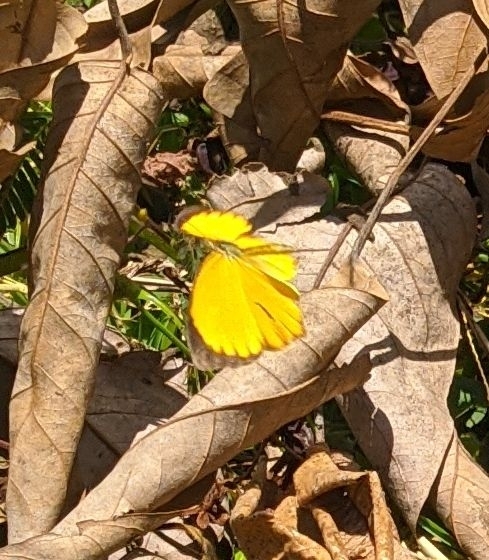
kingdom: Animalia
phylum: Arthropoda
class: Insecta
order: Lepidoptera
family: Pieridae
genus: Pyrisitia
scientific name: Pyrisitia proterpia
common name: Tailed orange
